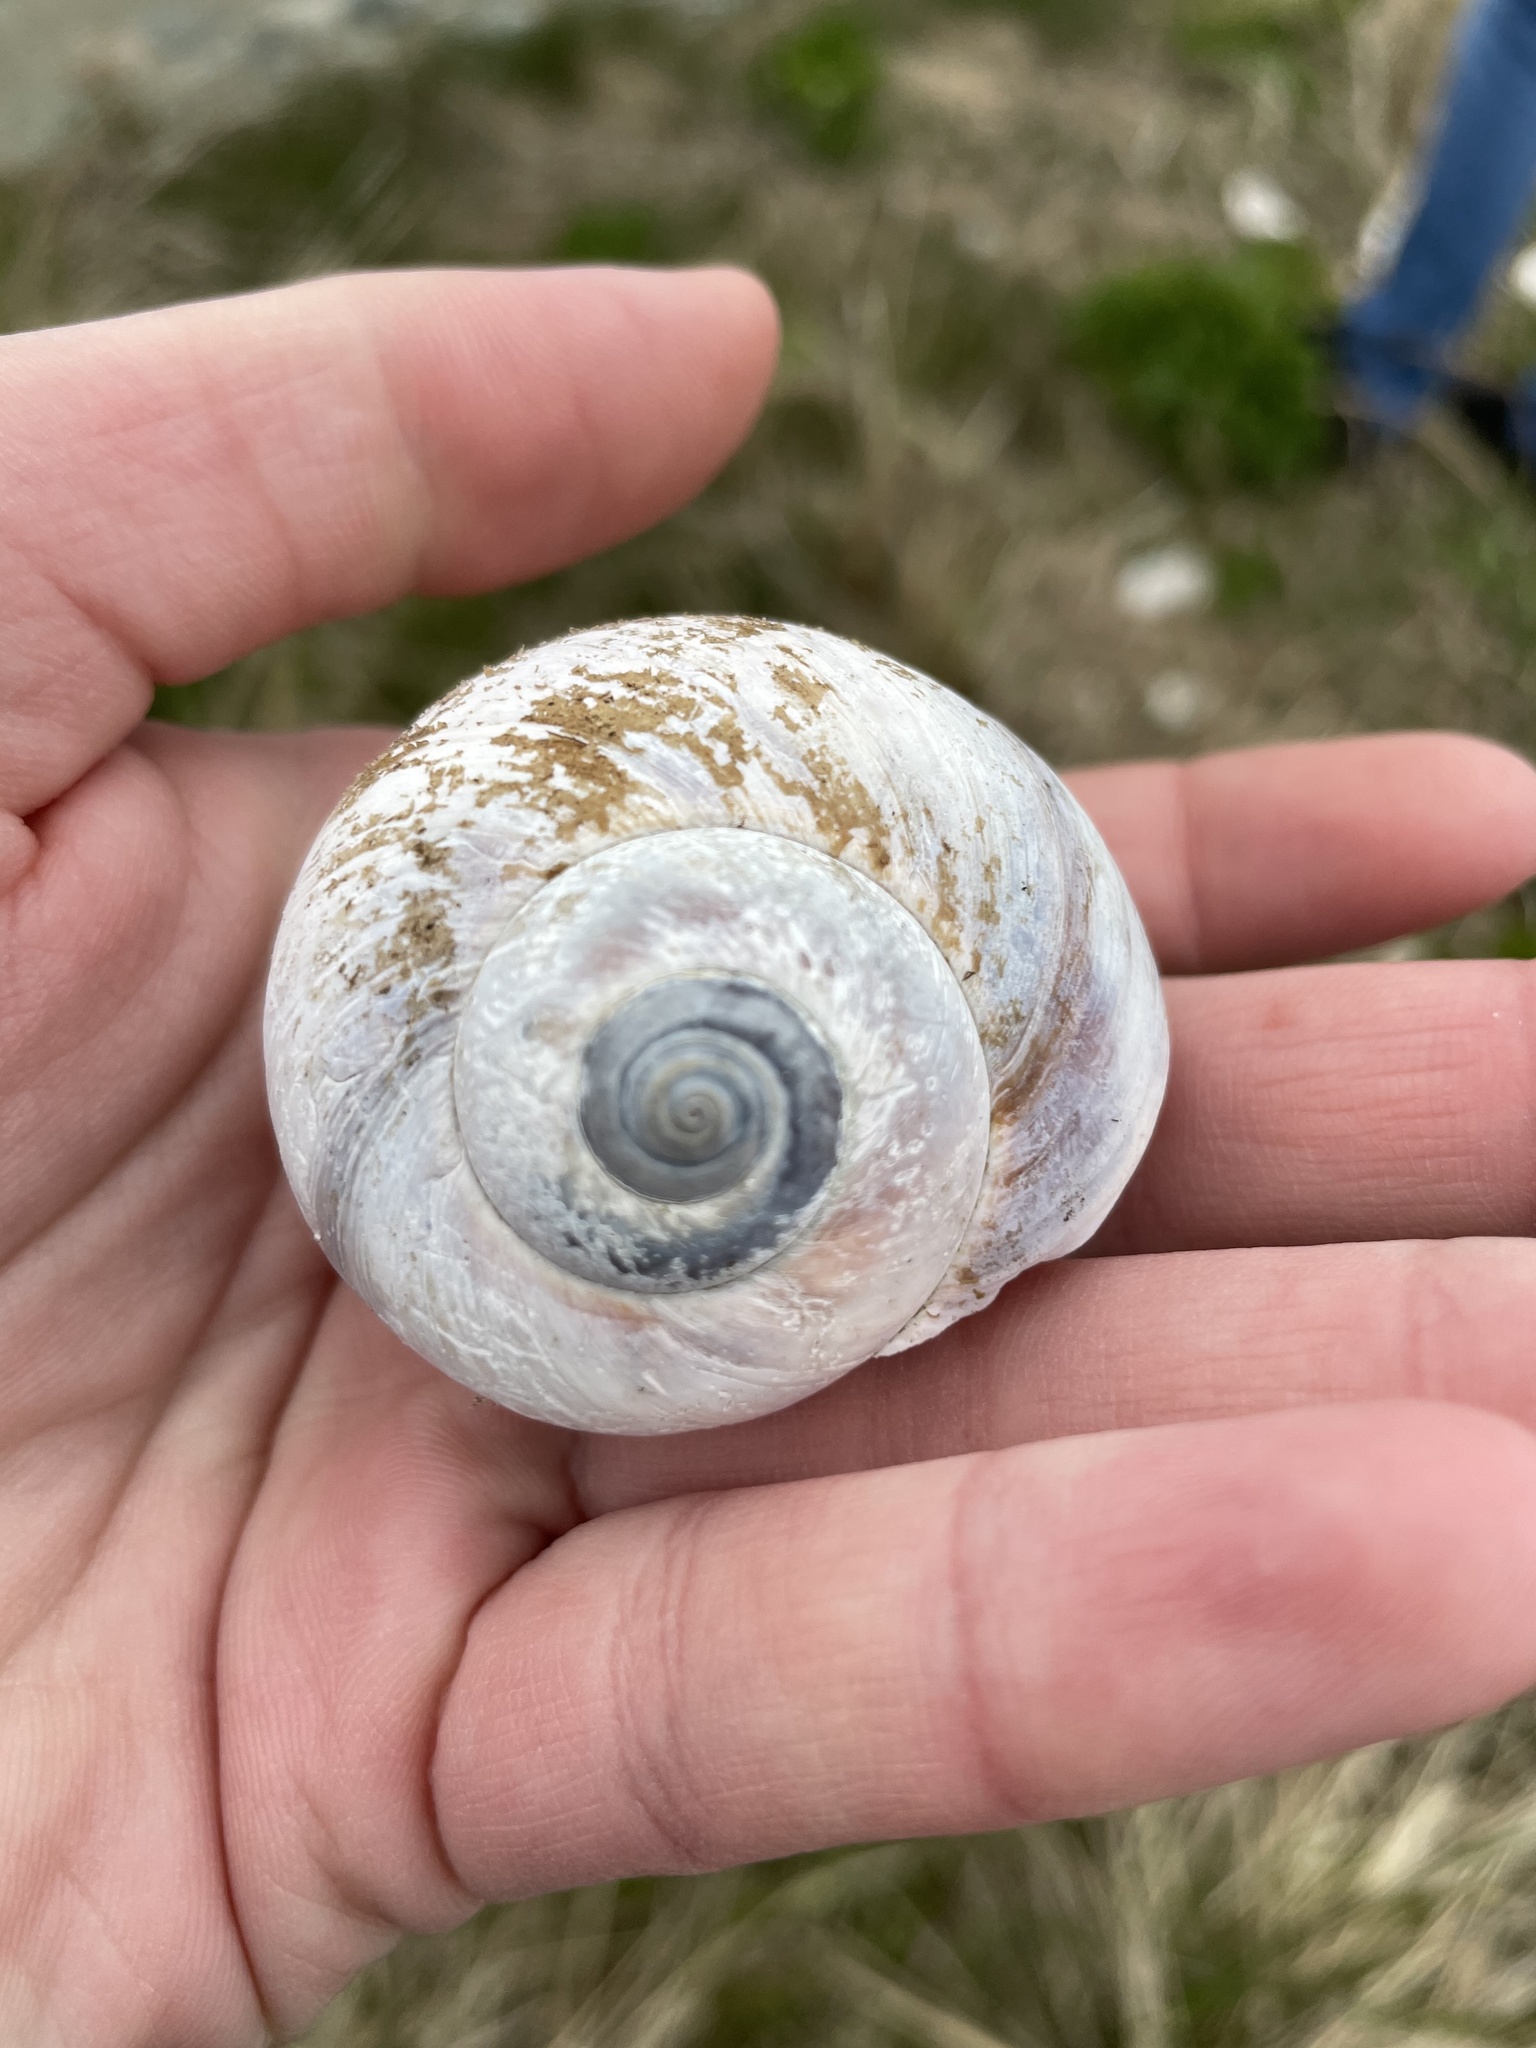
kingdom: Animalia
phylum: Mollusca
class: Gastropoda
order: Littorinimorpha
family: Naticidae
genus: Euspira
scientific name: Euspira heros
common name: Common northern moonsnail
